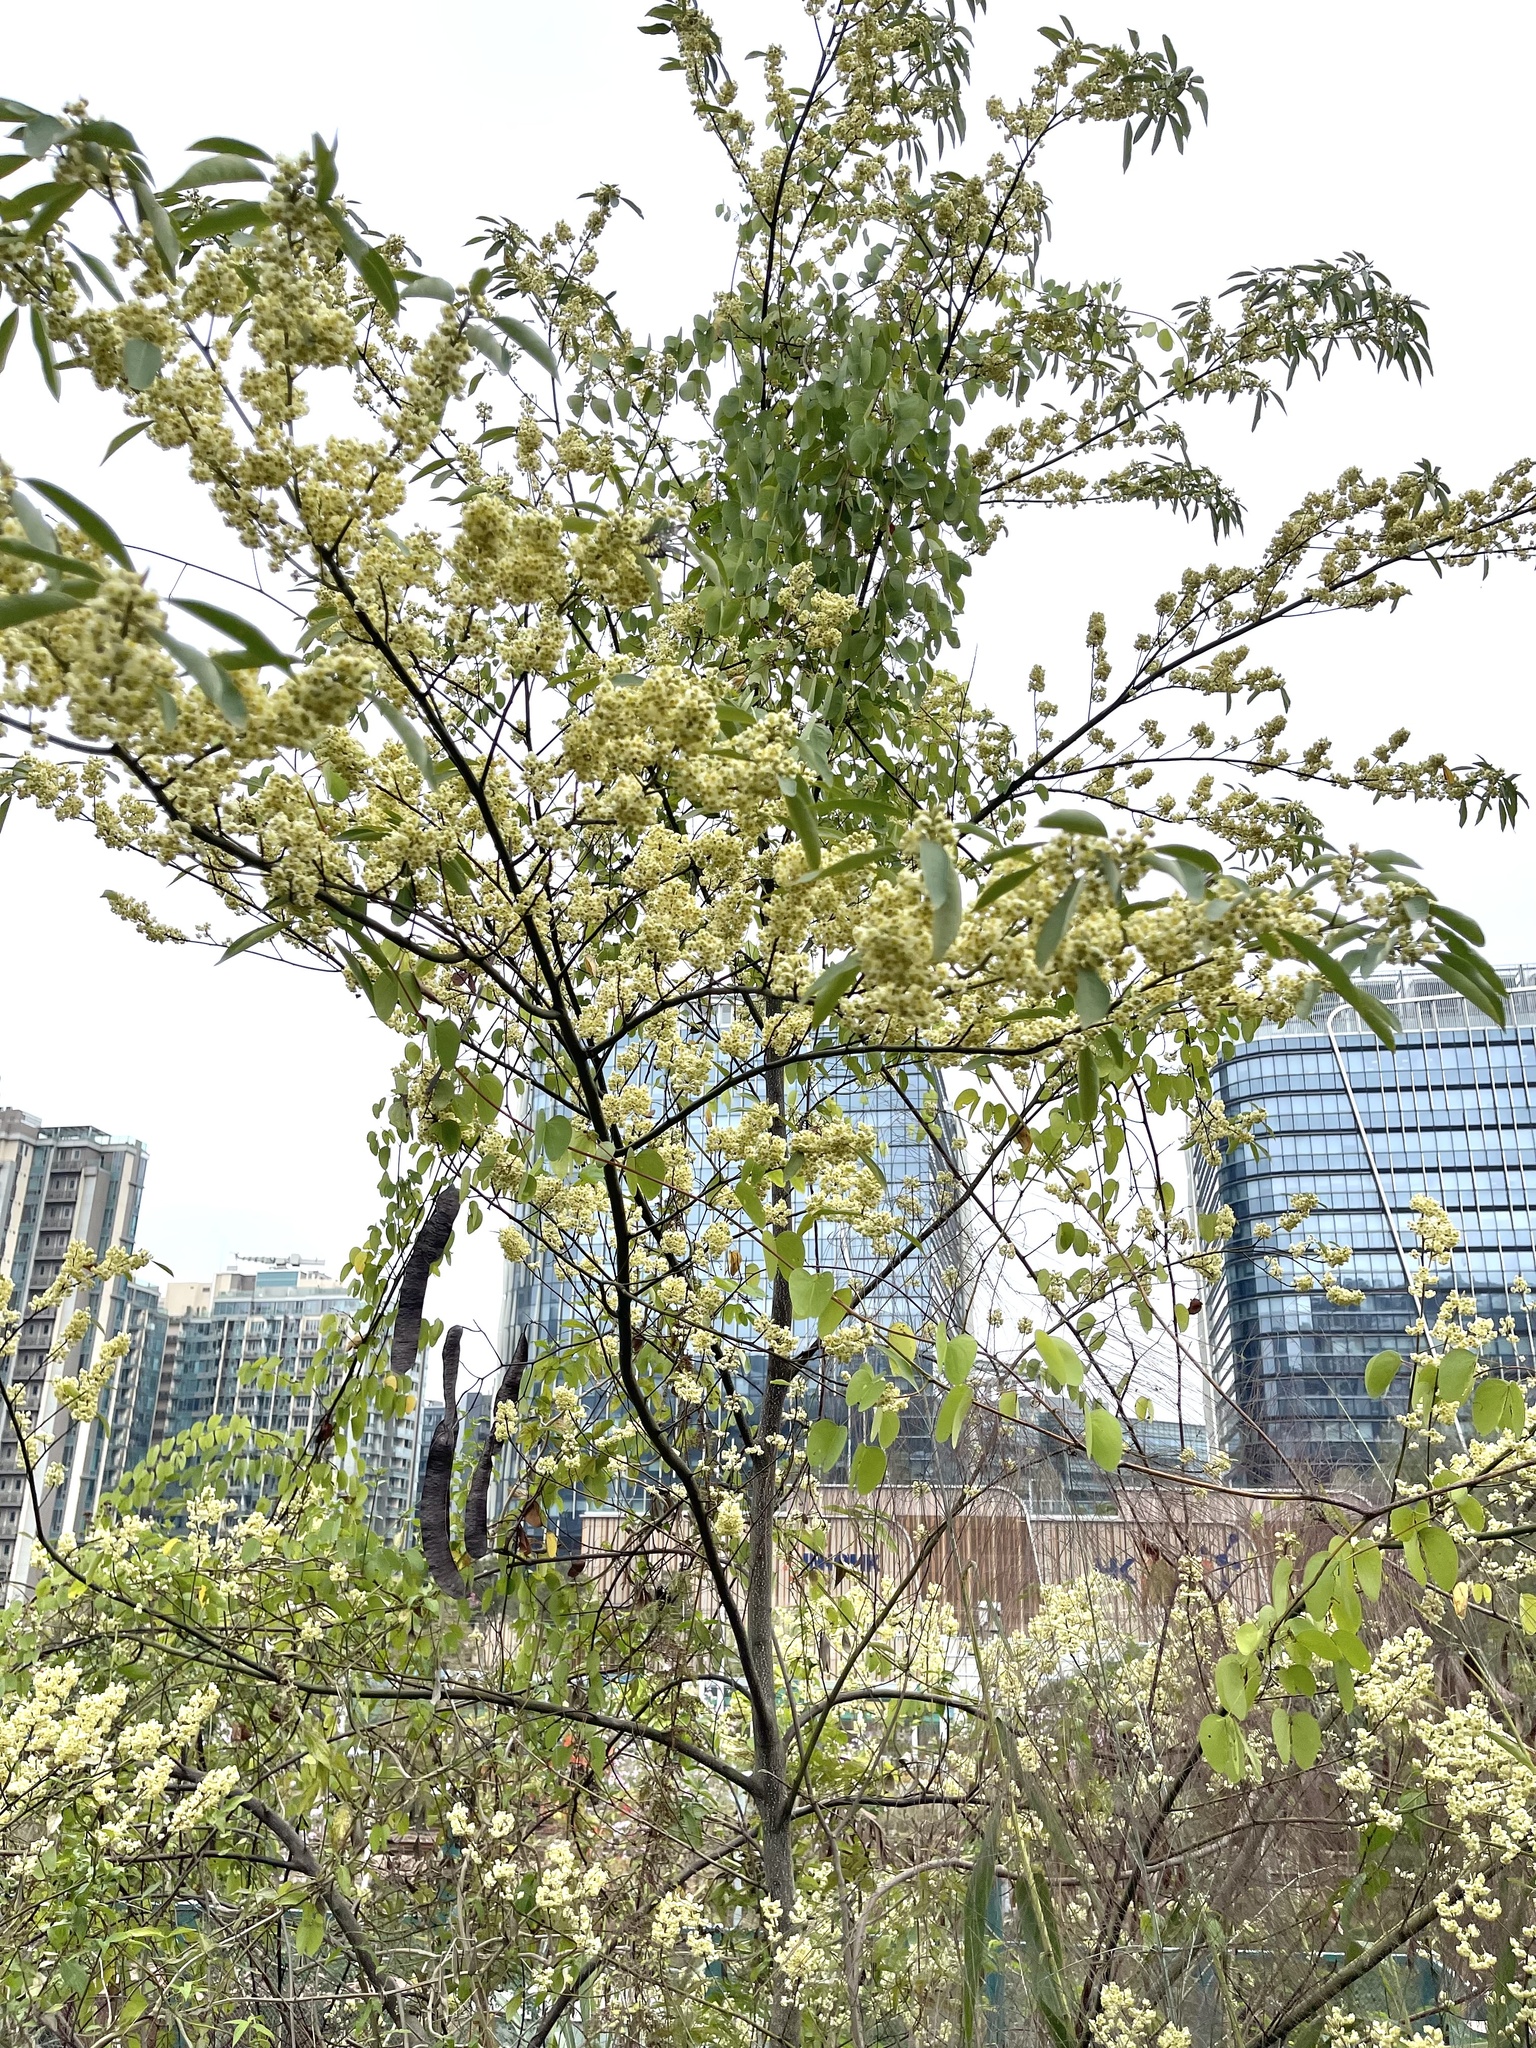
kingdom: Plantae
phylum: Tracheophyta
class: Magnoliopsida
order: Laurales
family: Lauraceae
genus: Litsea
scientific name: Litsea cubeba
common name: Mountain-pepper
